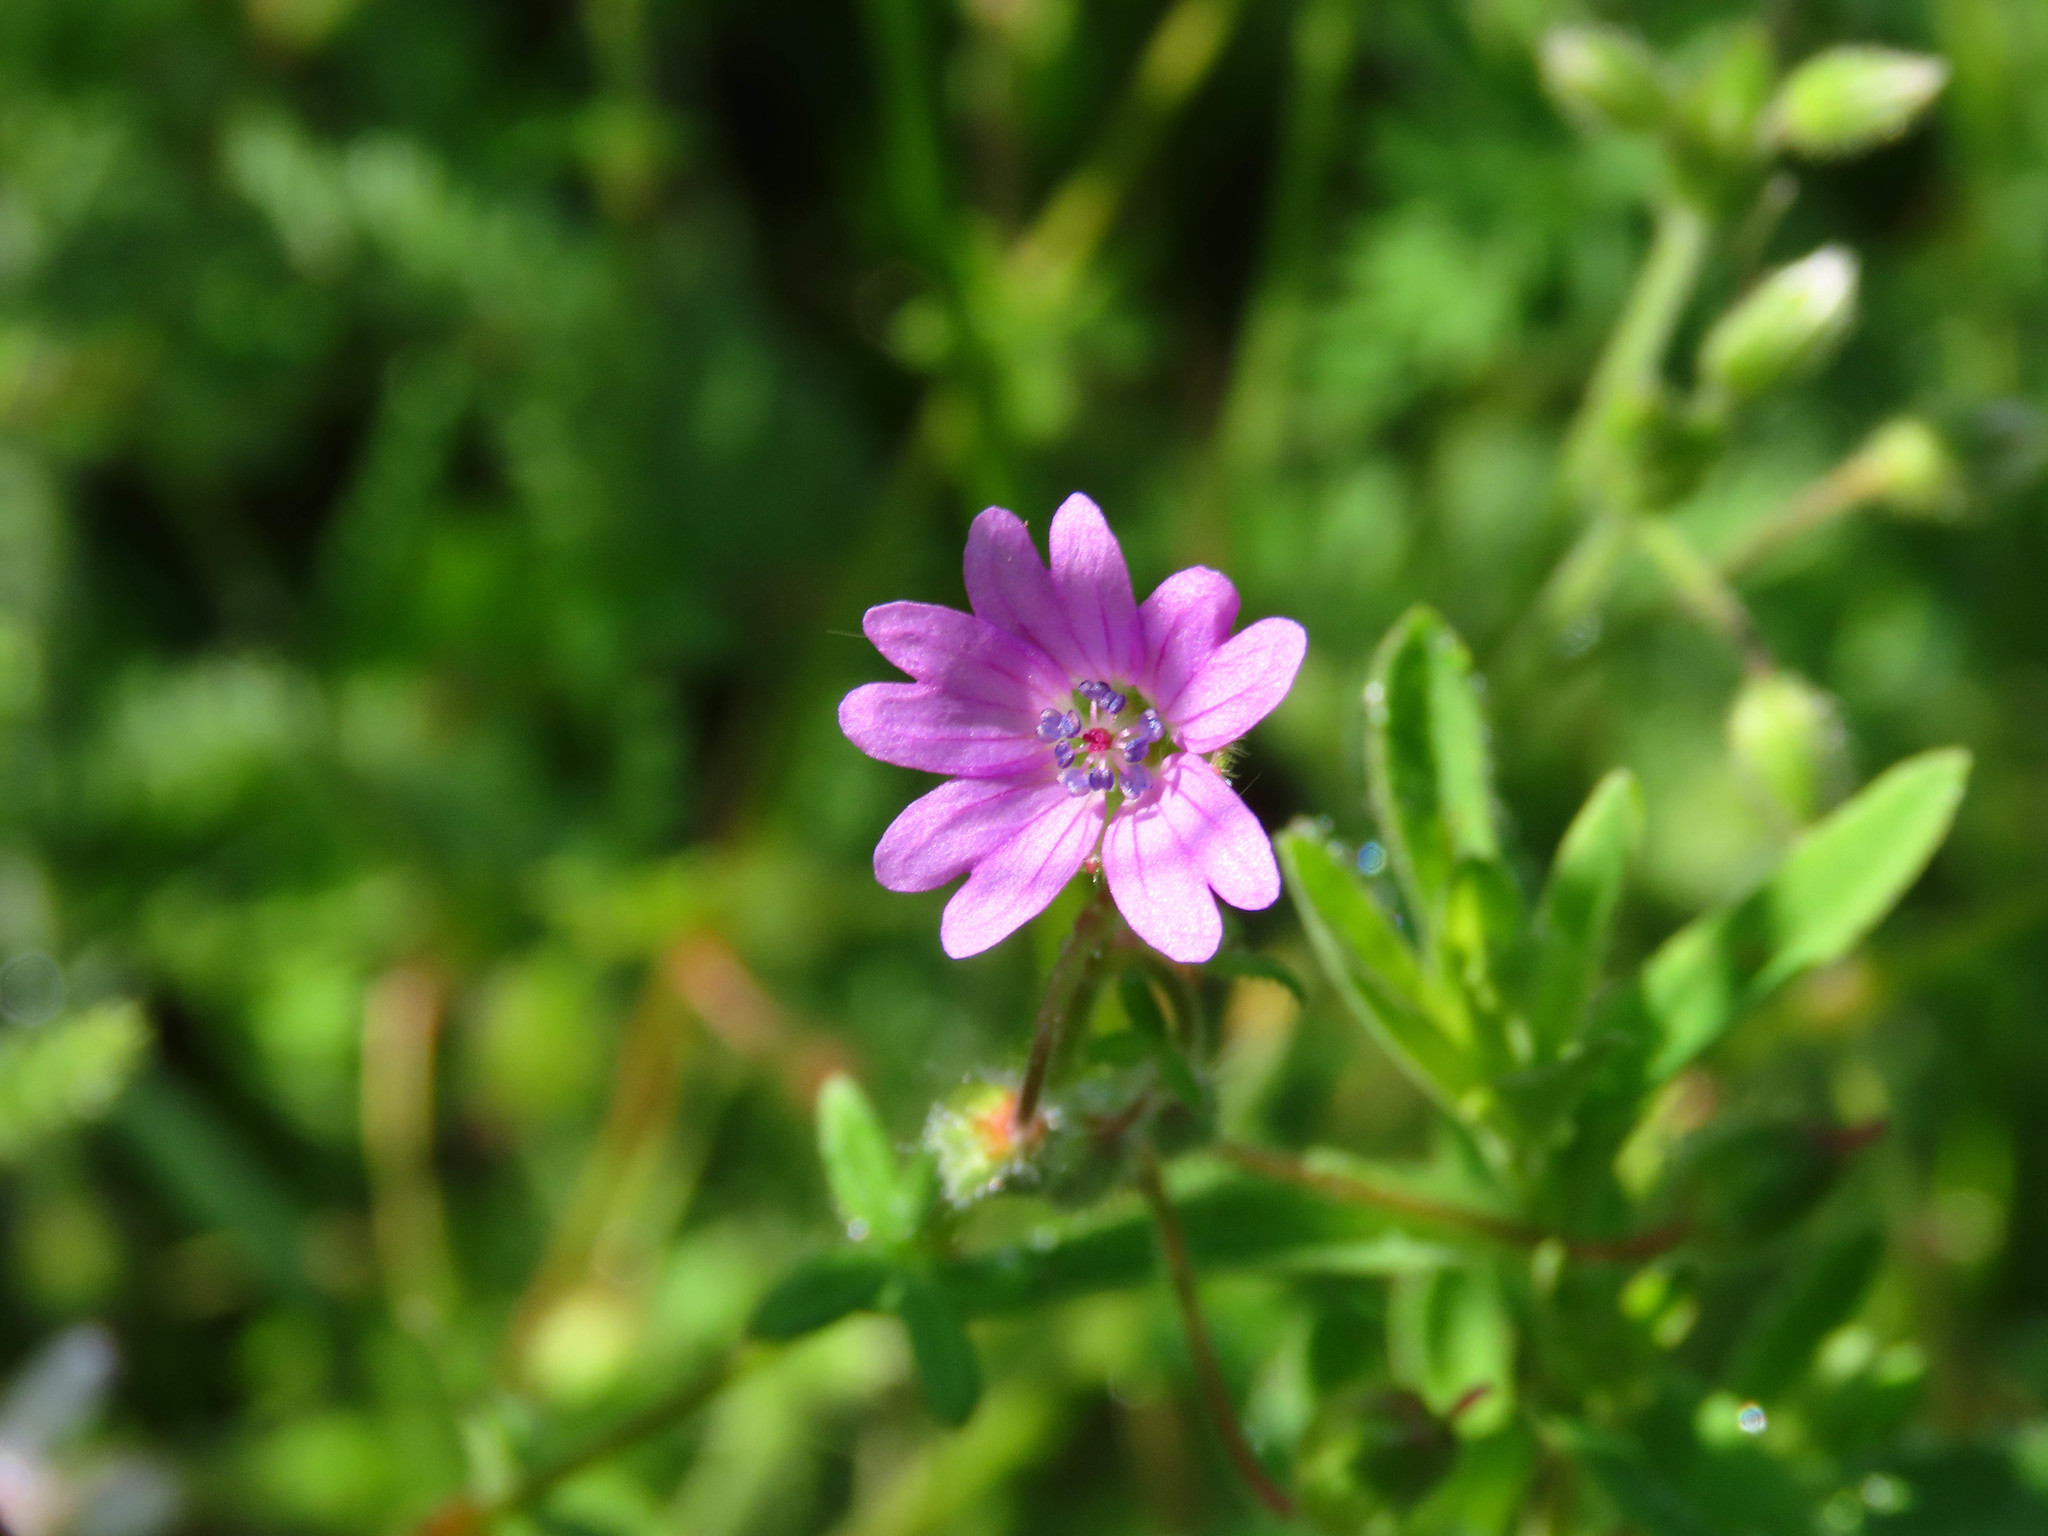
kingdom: Plantae
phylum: Tracheophyta
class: Magnoliopsida
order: Geraniales
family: Geraniaceae
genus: Geranium
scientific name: Geranium molle
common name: Dove's-foot crane's-bill
